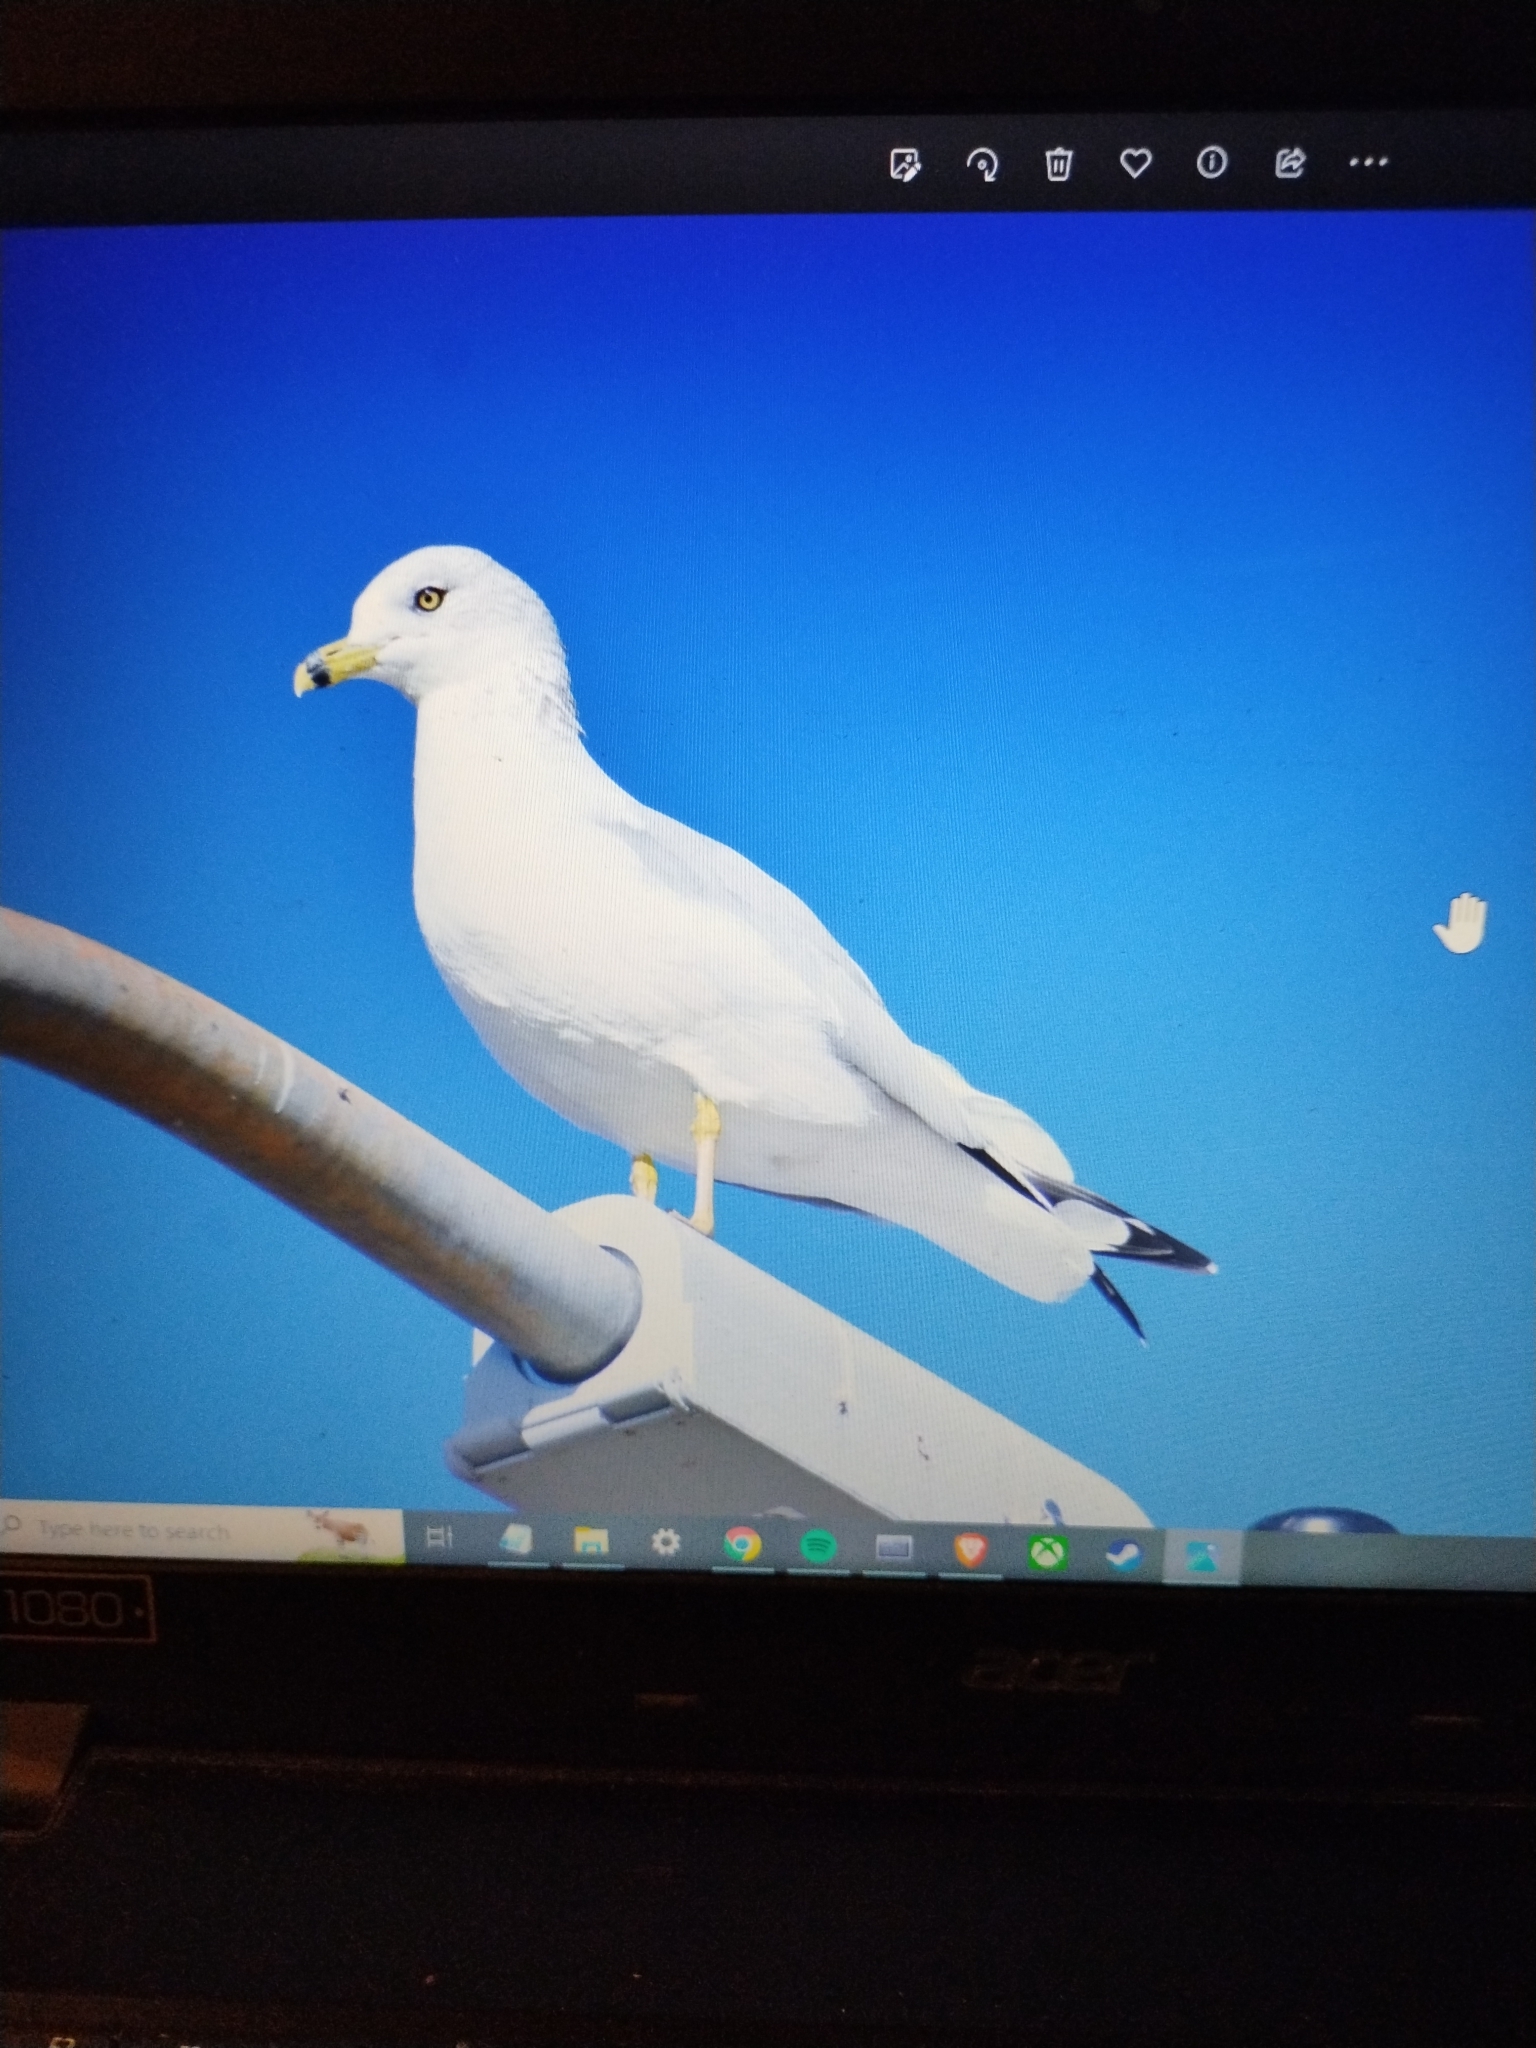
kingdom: Animalia
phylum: Chordata
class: Aves
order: Charadriiformes
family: Laridae
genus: Larus
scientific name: Larus delawarensis
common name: Ring-billed gull
